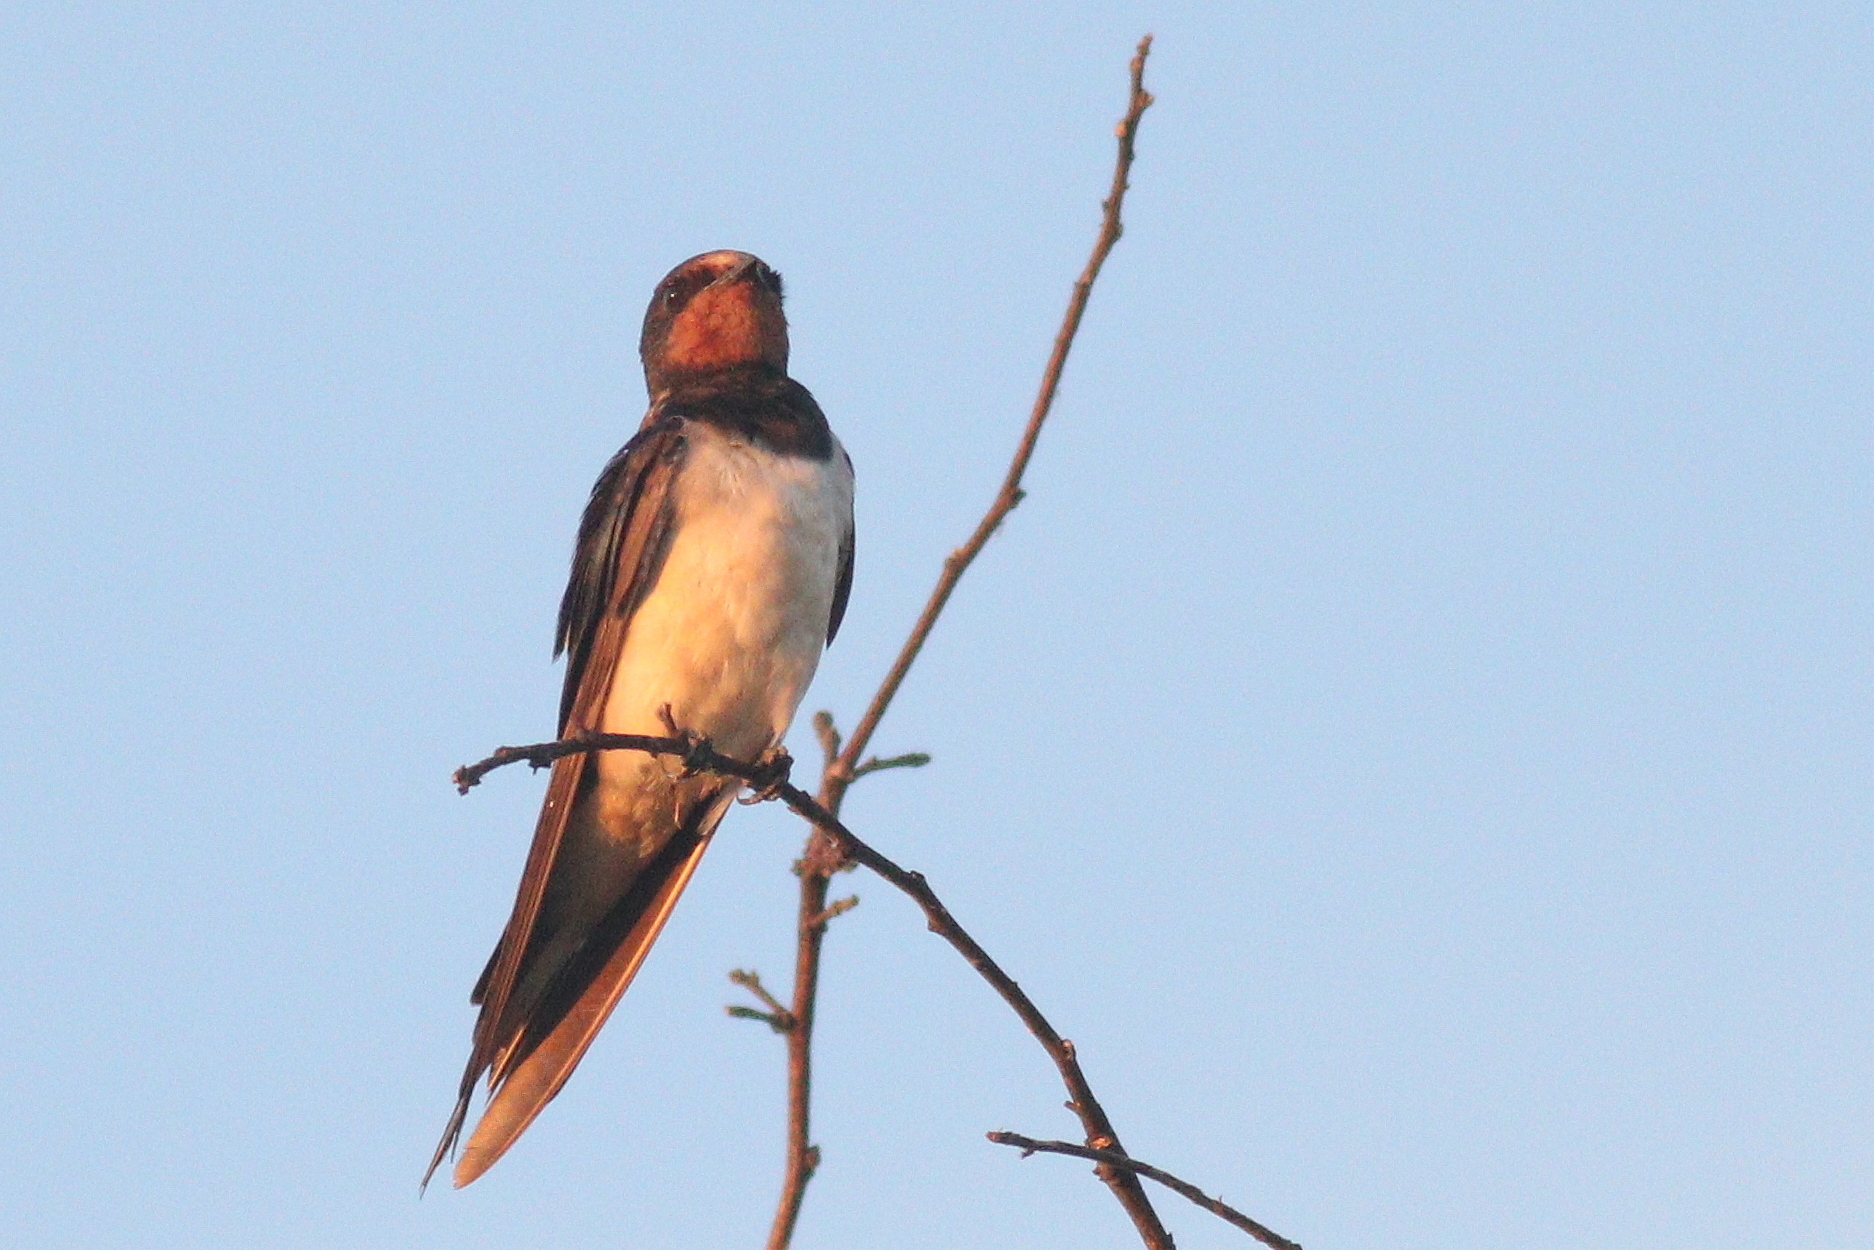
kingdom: Animalia
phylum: Chordata
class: Aves
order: Passeriformes
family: Hirundinidae
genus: Hirundo
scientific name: Hirundo rustica
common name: Barn swallow
